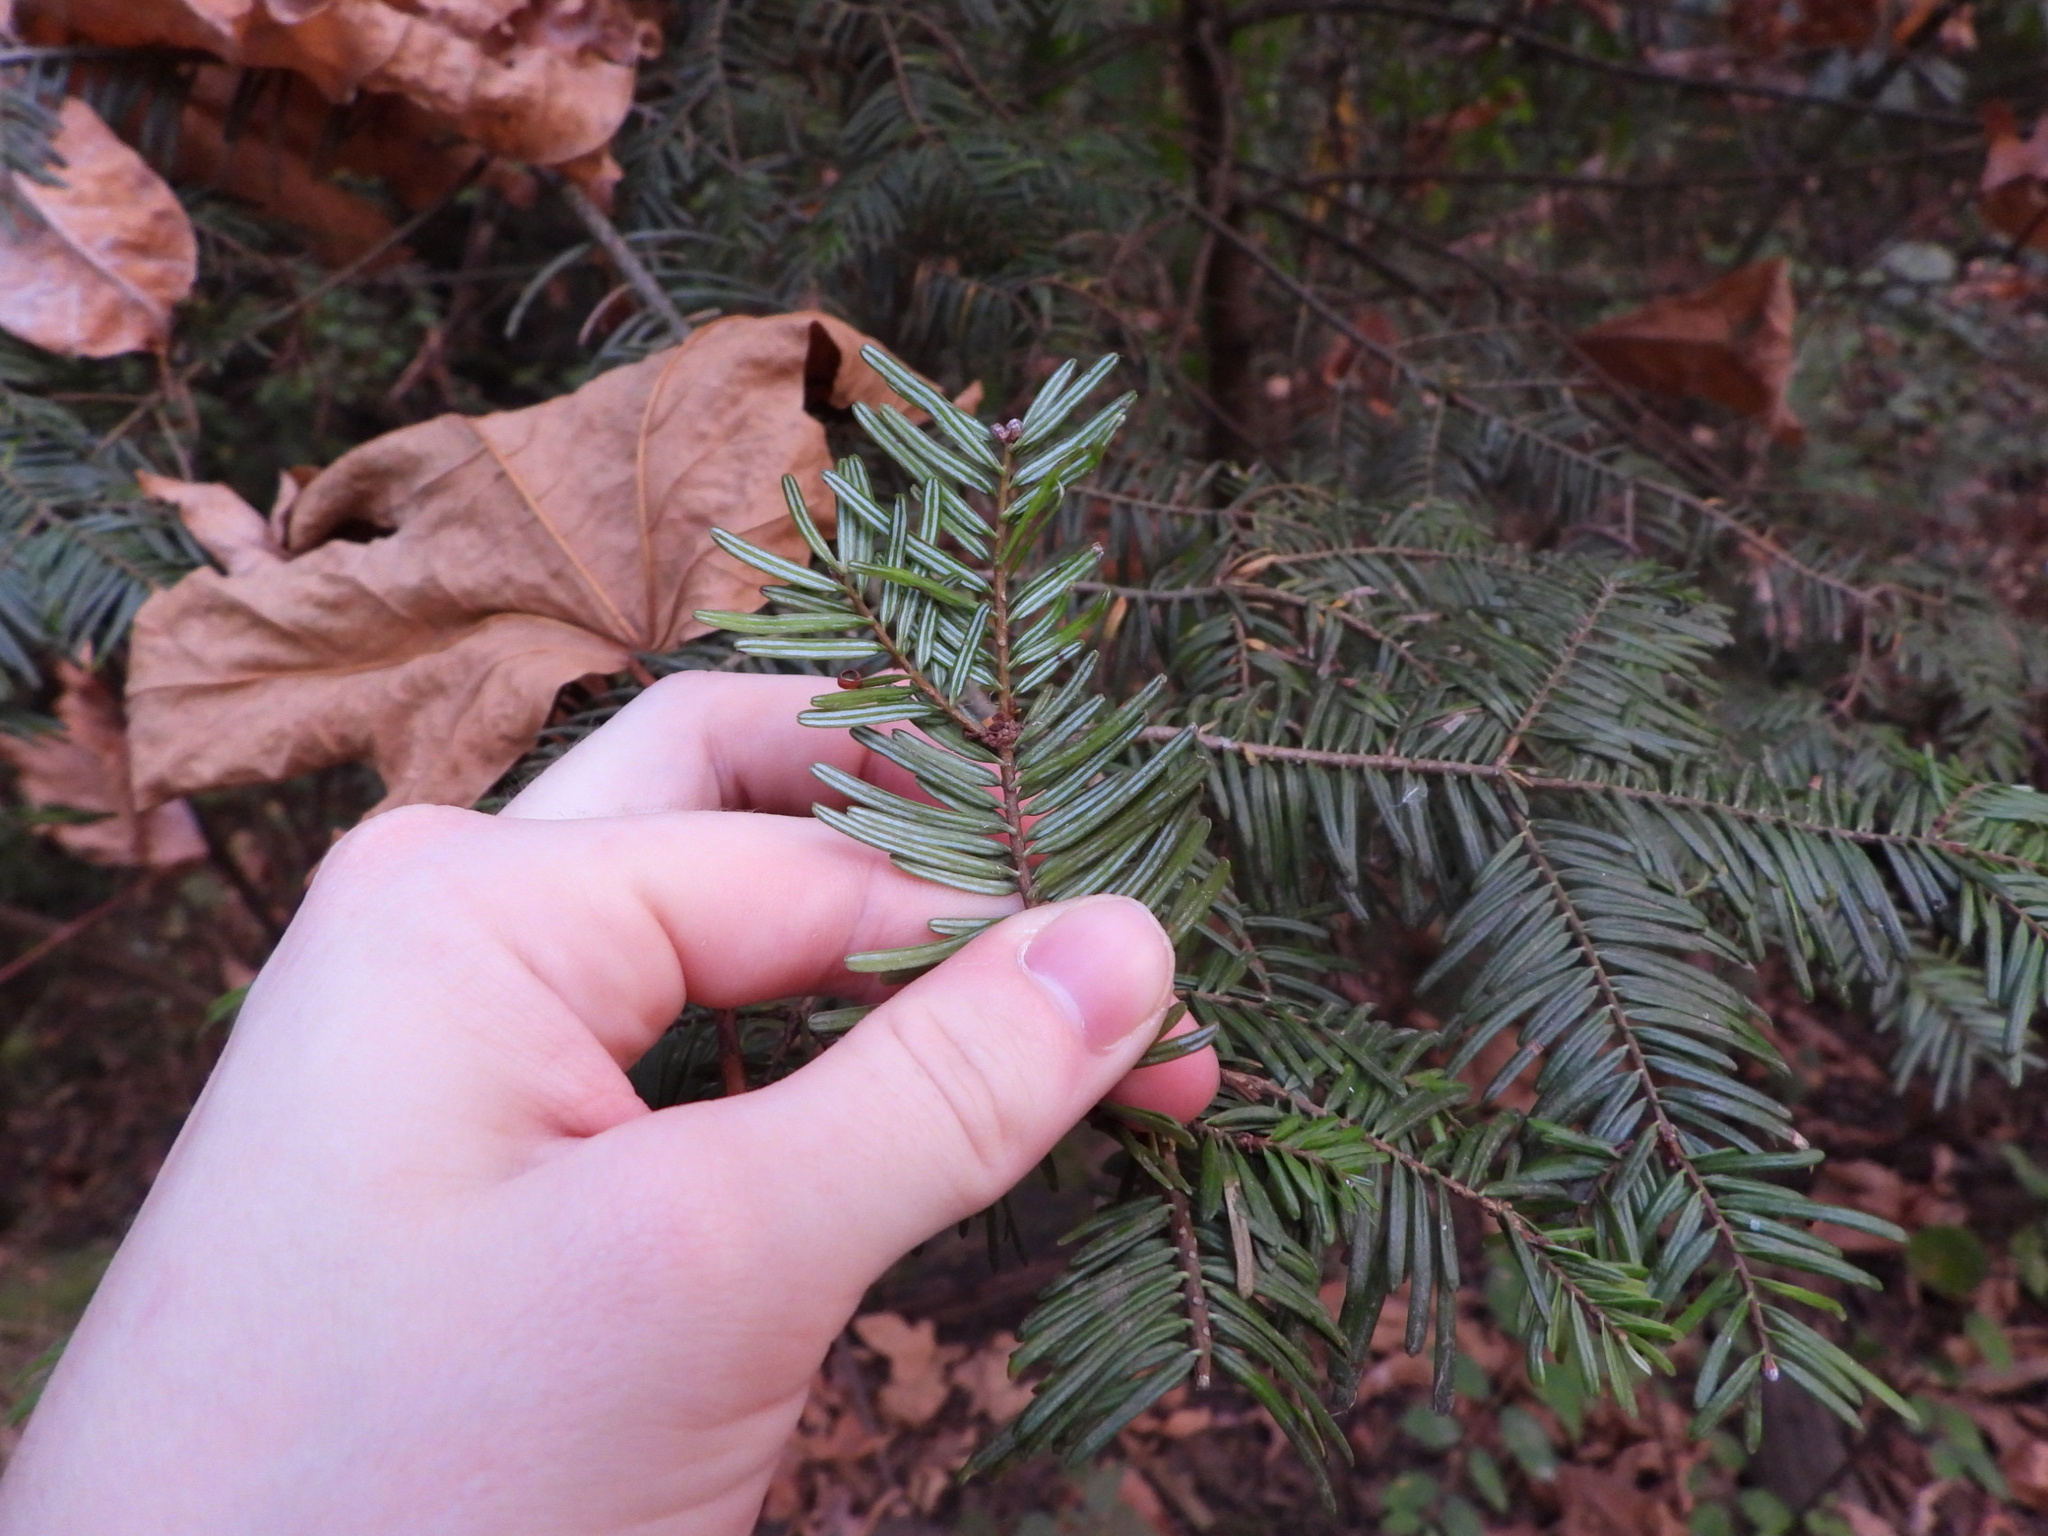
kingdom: Plantae
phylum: Tracheophyta
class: Pinopsida
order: Pinales
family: Pinaceae
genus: Abies
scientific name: Abies grandis
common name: Giant fir
